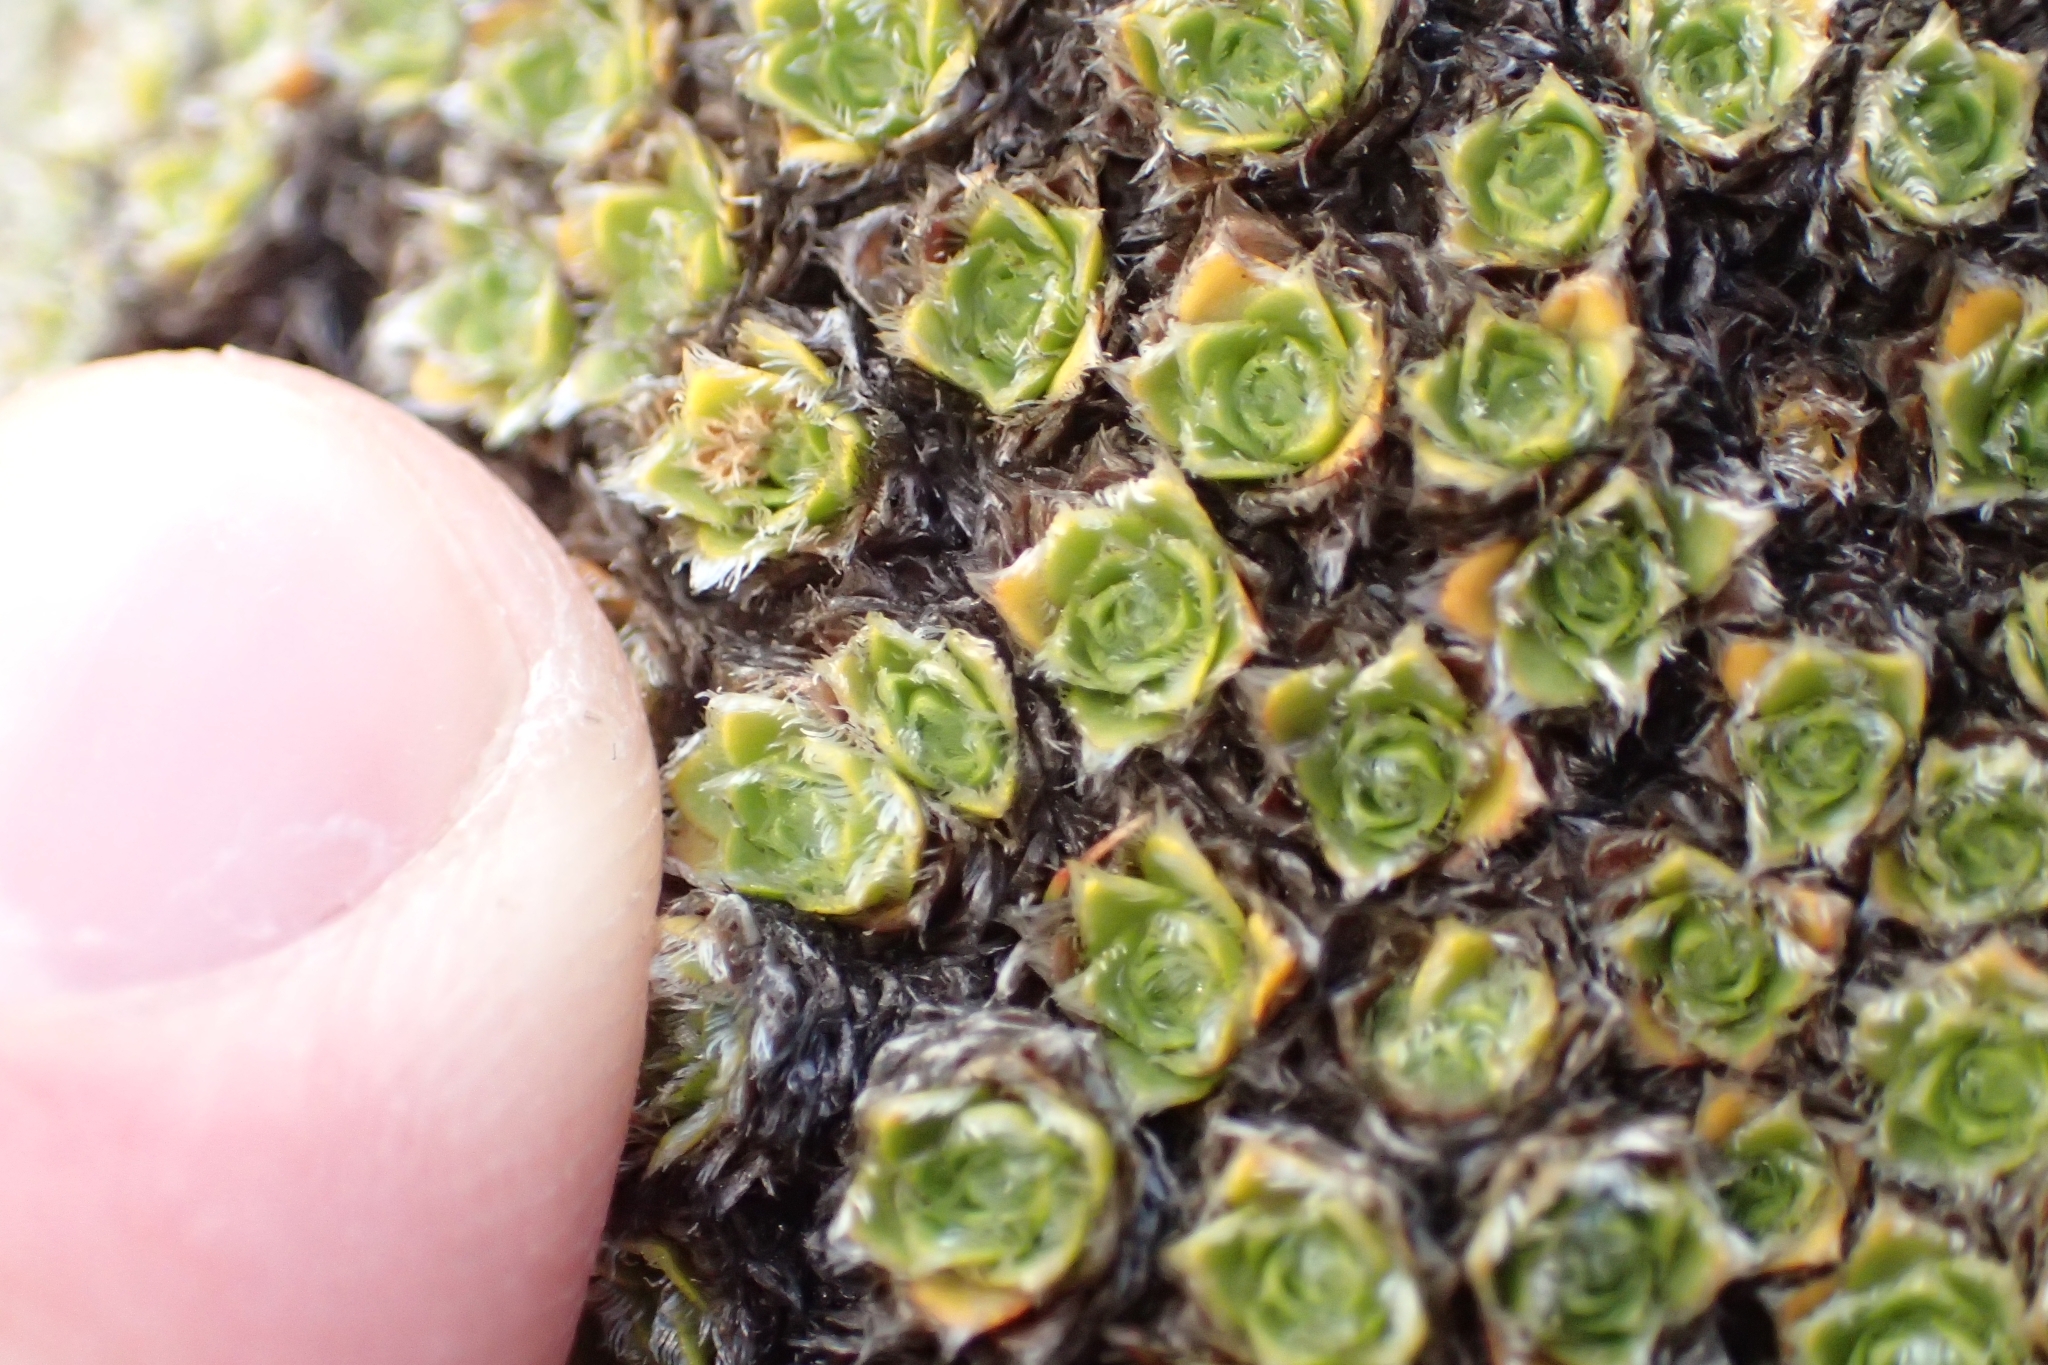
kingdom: Plantae
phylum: Tracheophyta
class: Magnoliopsida
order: Lamiales
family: Plantaginaceae
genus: Veronica
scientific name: Veronica ciliolata
